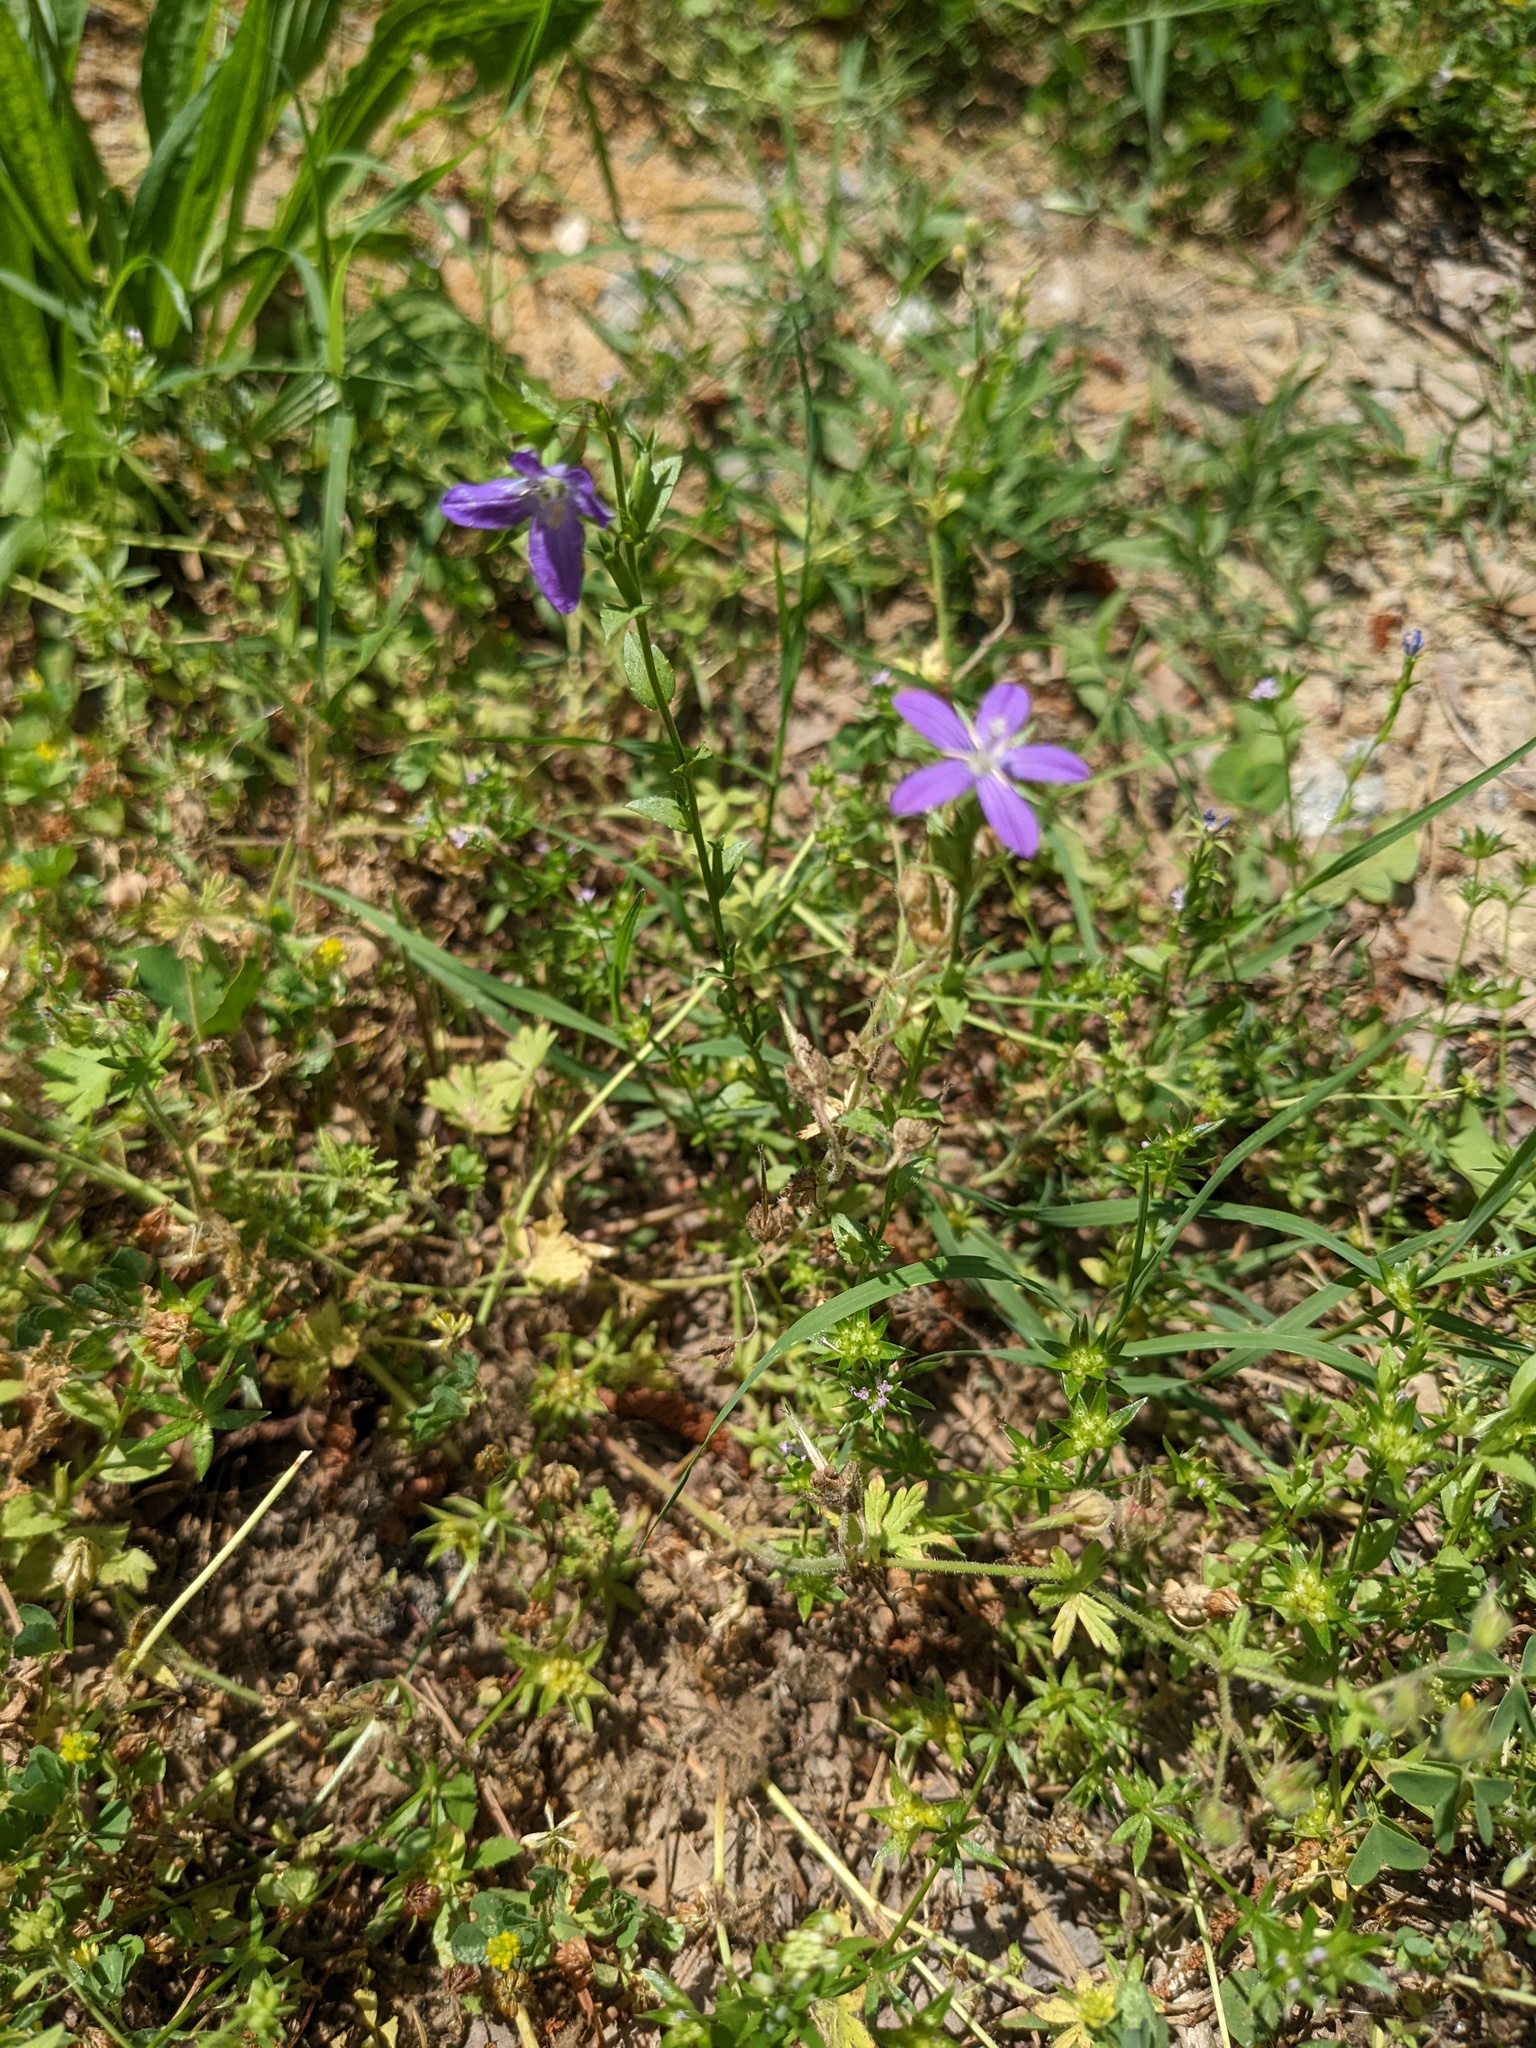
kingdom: Plantae
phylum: Tracheophyta
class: Magnoliopsida
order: Asterales
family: Campanulaceae
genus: Triodanis
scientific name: Triodanis biflora
